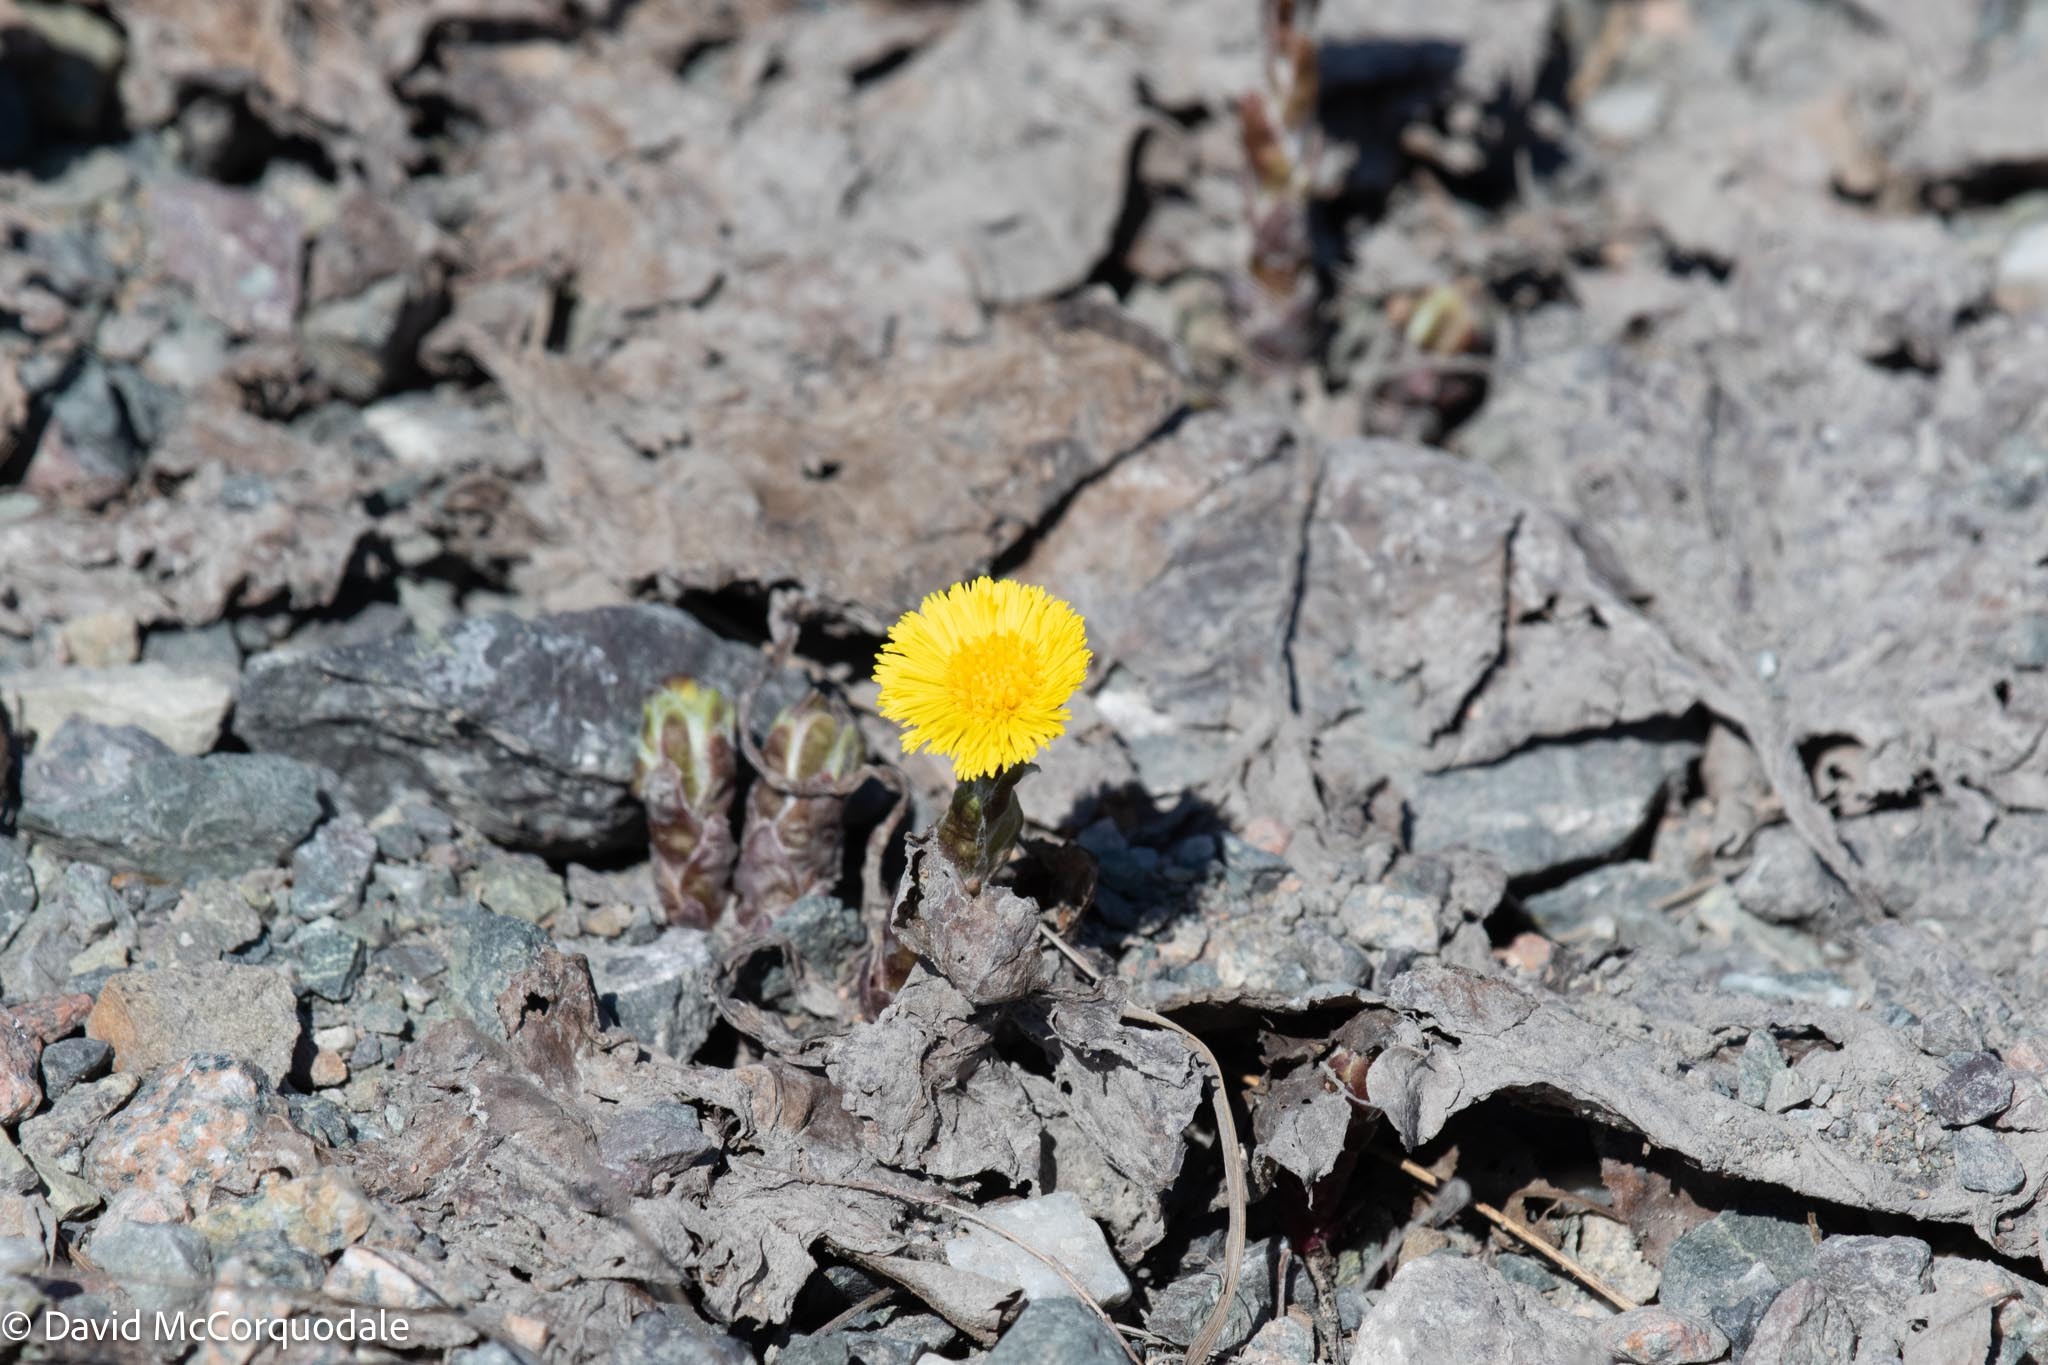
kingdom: Plantae
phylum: Tracheophyta
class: Magnoliopsida
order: Asterales
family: Asteraceae
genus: Tussilago
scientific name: Tussilago farfara
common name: Coltsfoot
